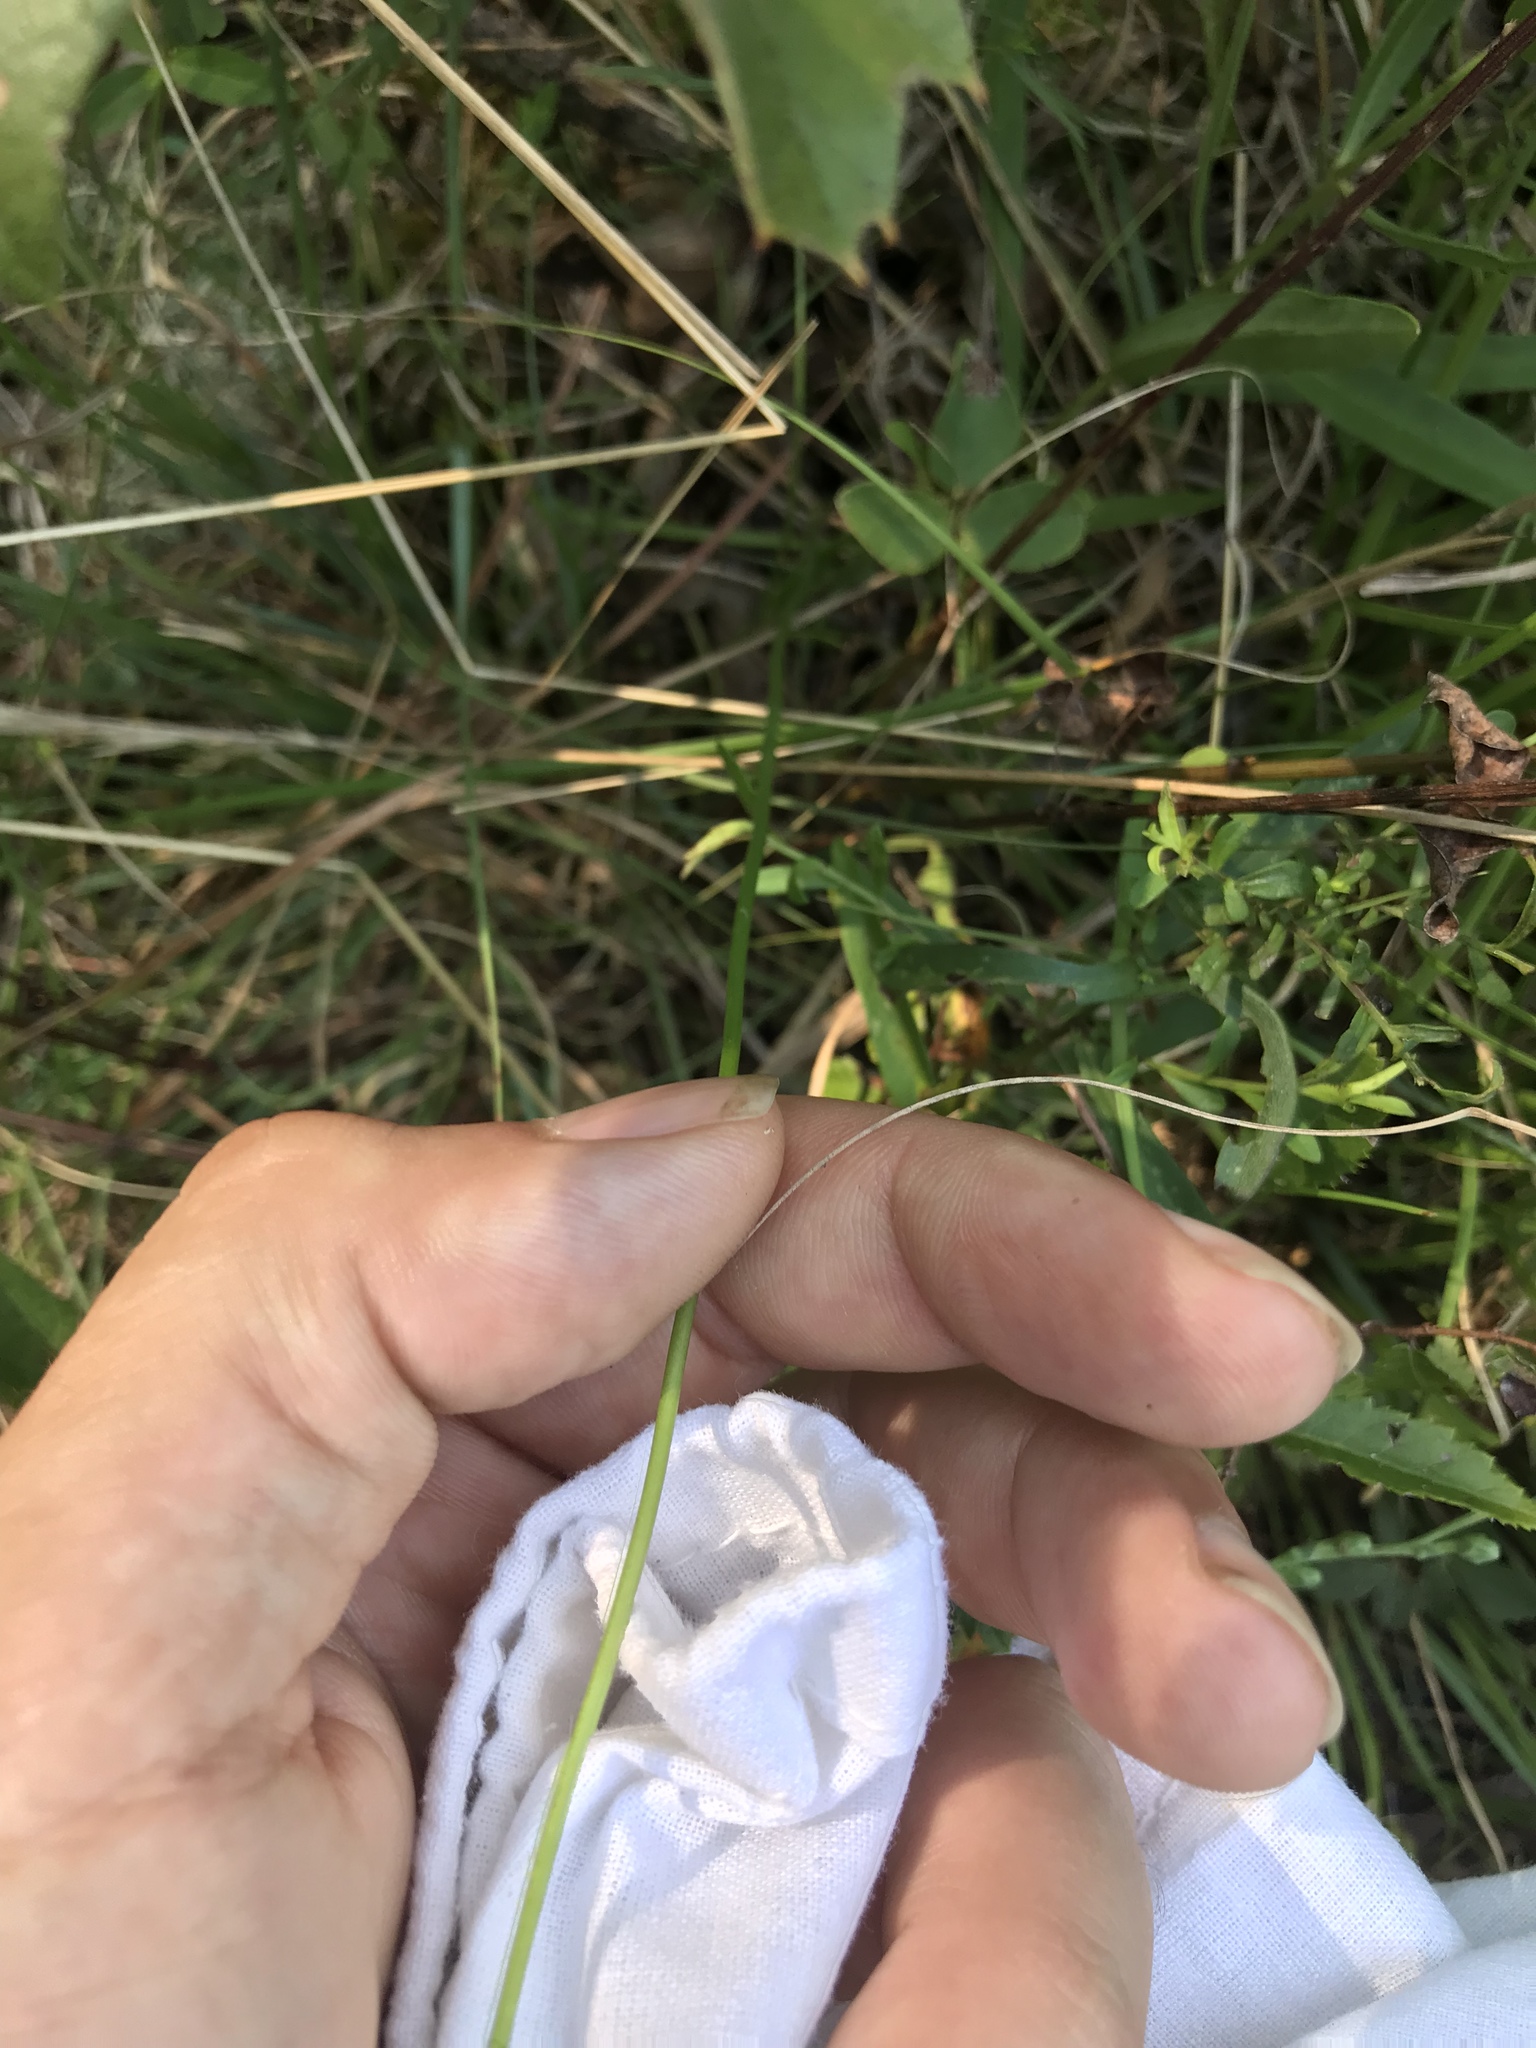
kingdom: Plantae
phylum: Tracheophyta
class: Liliopsida
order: Asparagales
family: Orchidaceae
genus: Spiranthes
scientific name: Spiranthes lacera
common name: Northern slender ladies'-tresses
